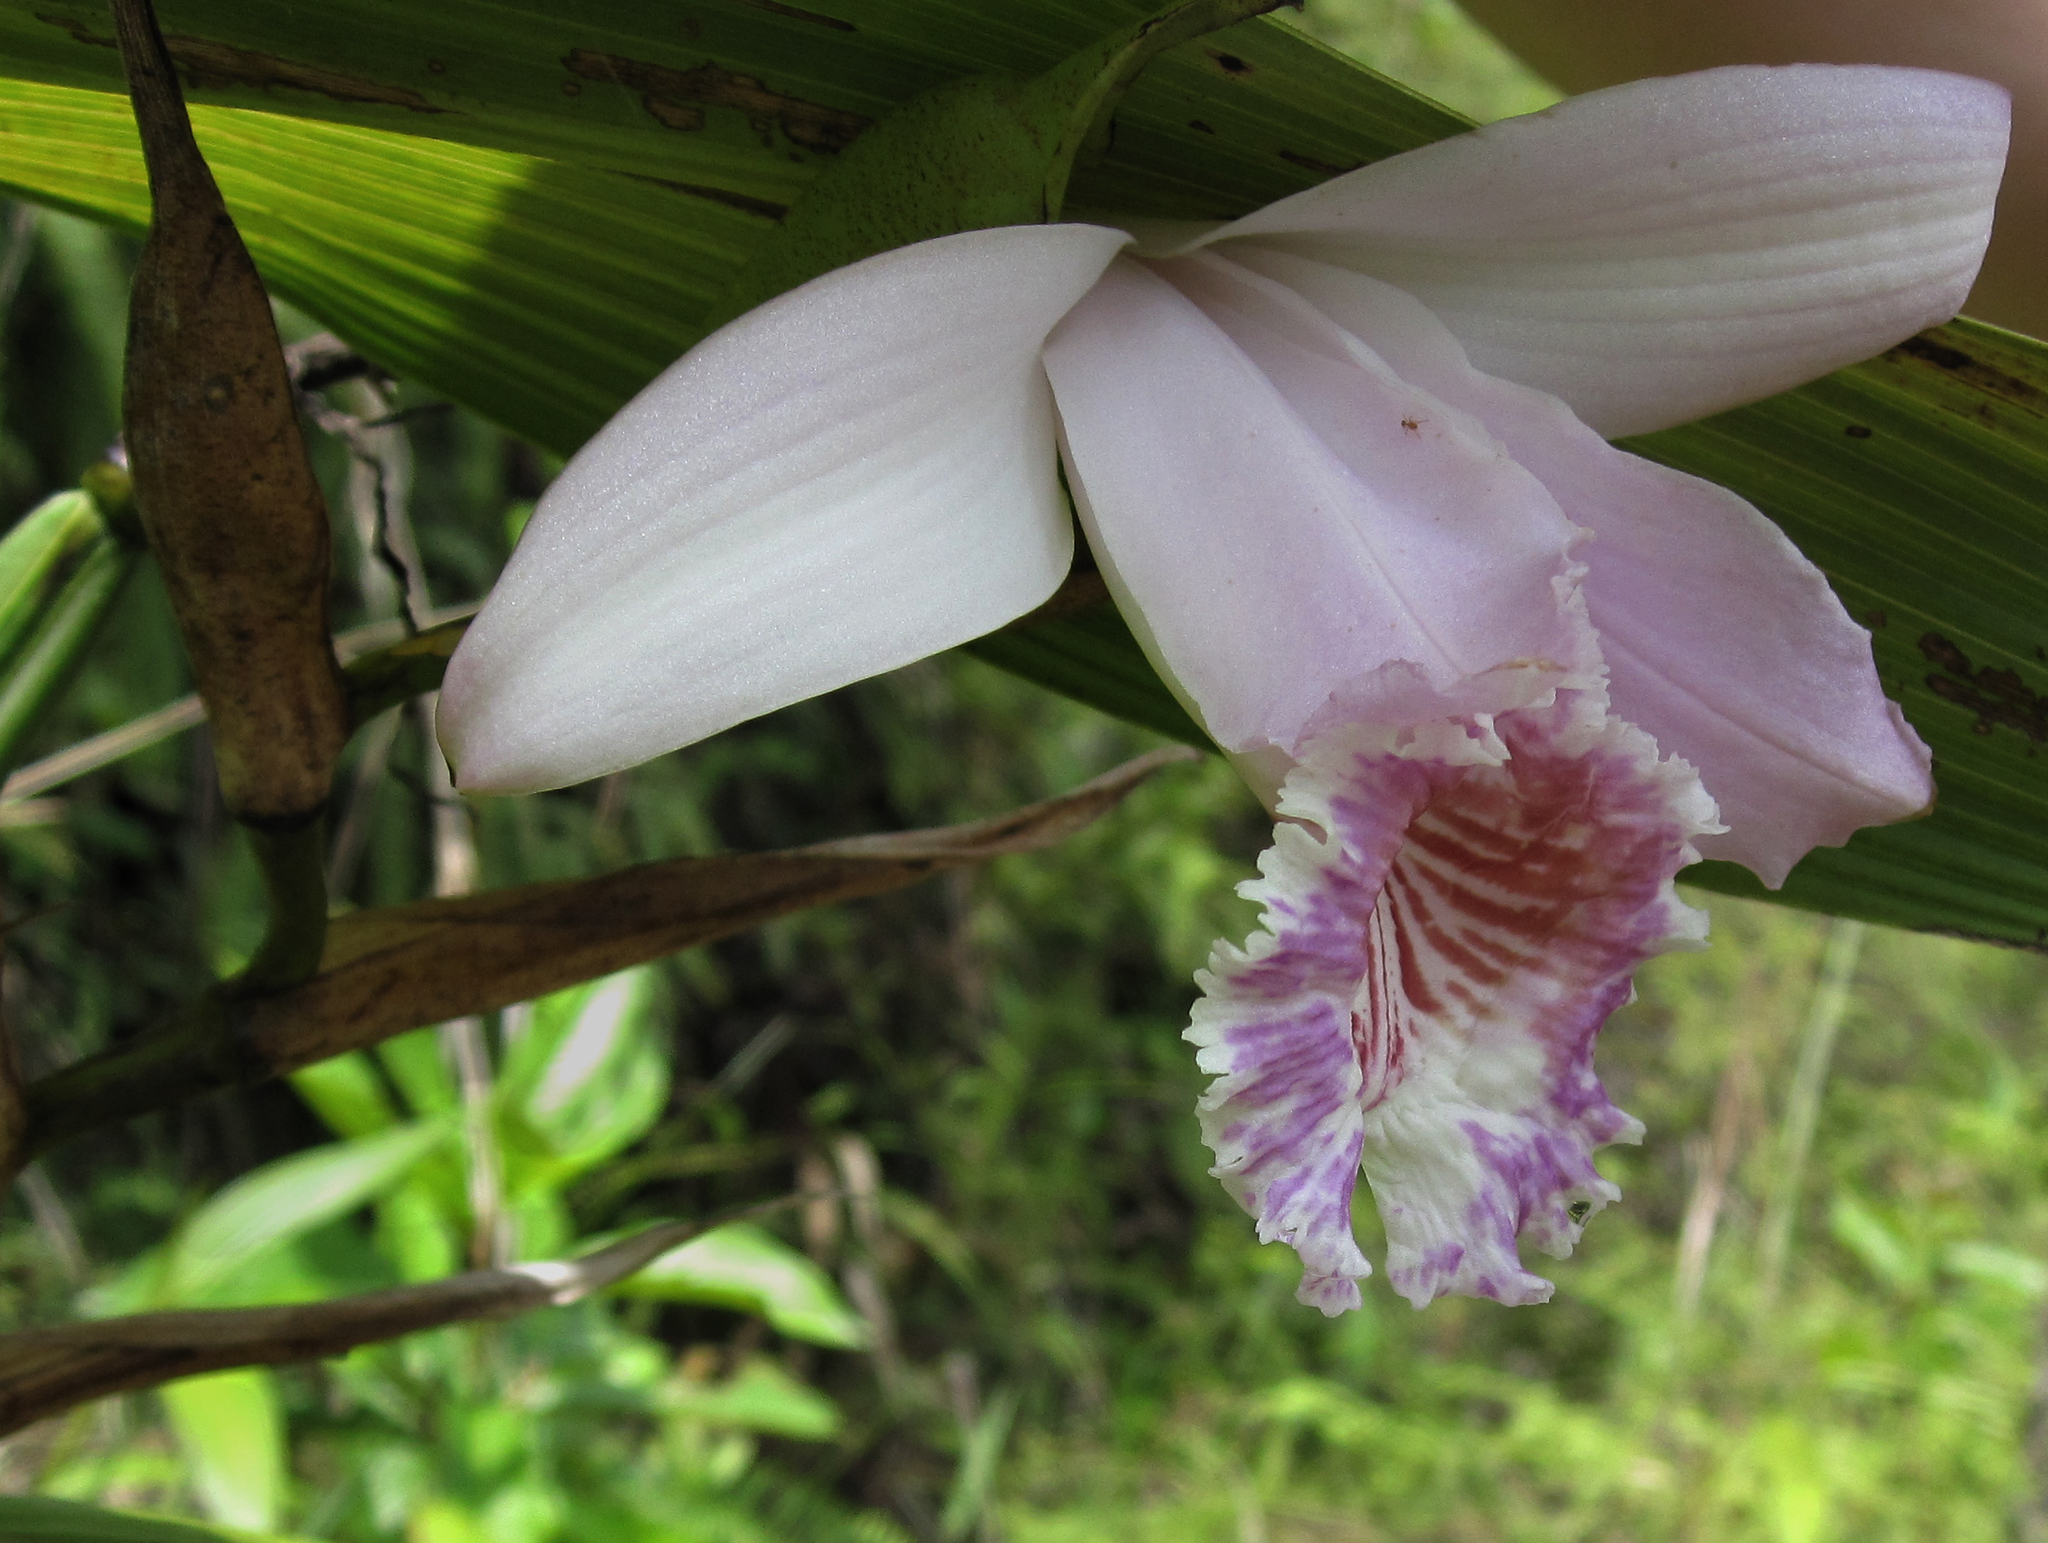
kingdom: Plantae
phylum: Tracheophyta
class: Liliopsida
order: Asparagales
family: Orchidaceae
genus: Sobralia
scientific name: Sobralia rosea
